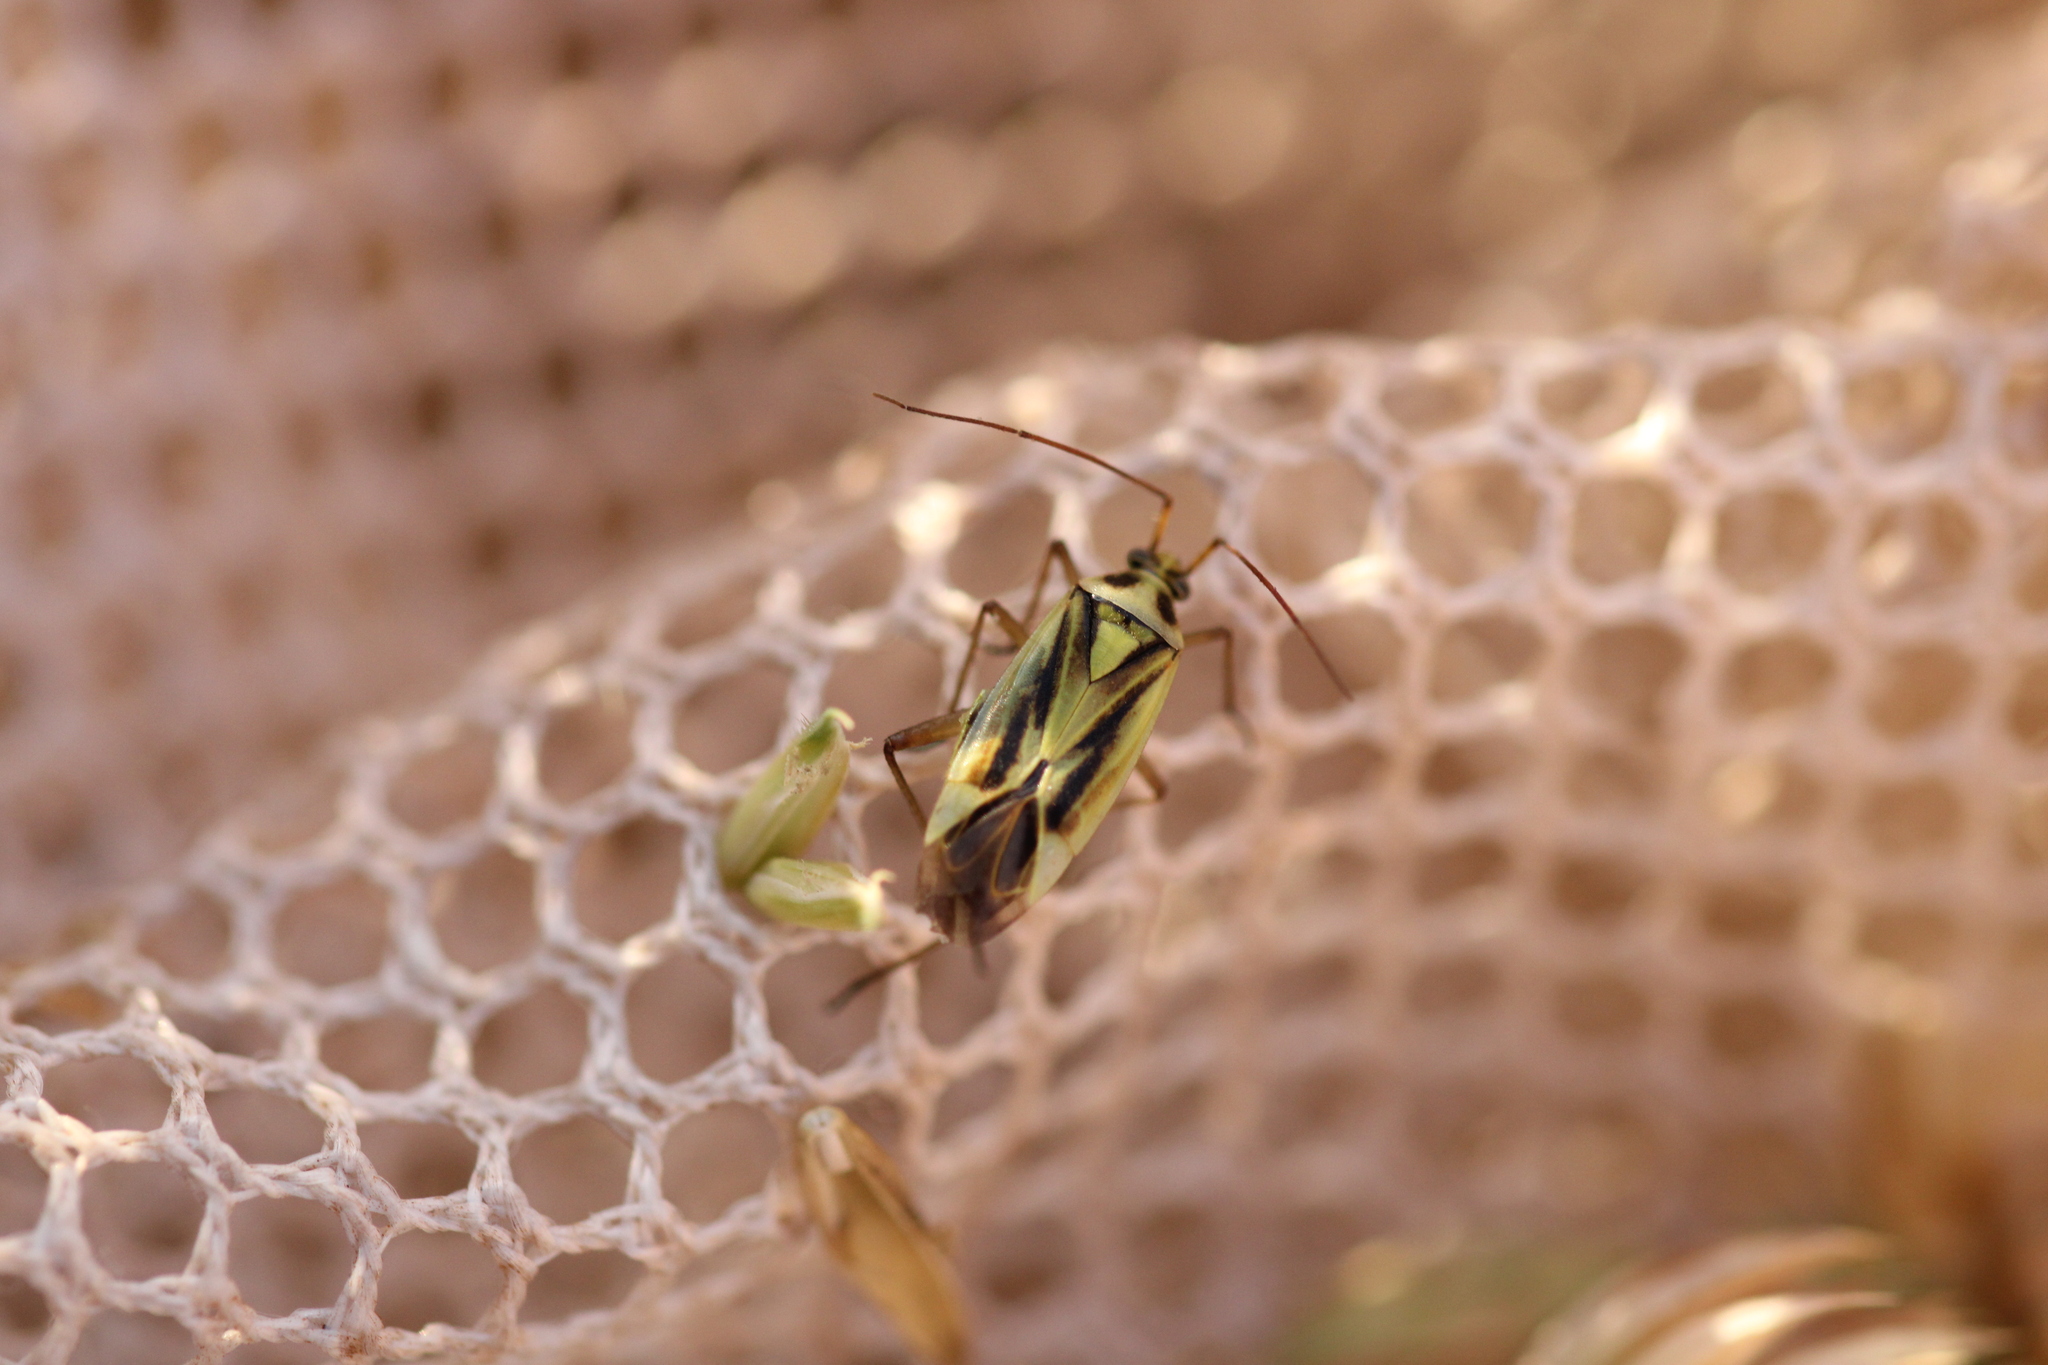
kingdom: Animalia
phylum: Arthropoda
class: Insecta
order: Hemiptera
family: Miridae
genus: Stenotus
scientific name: Stenotus binotatus
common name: Plant bug
